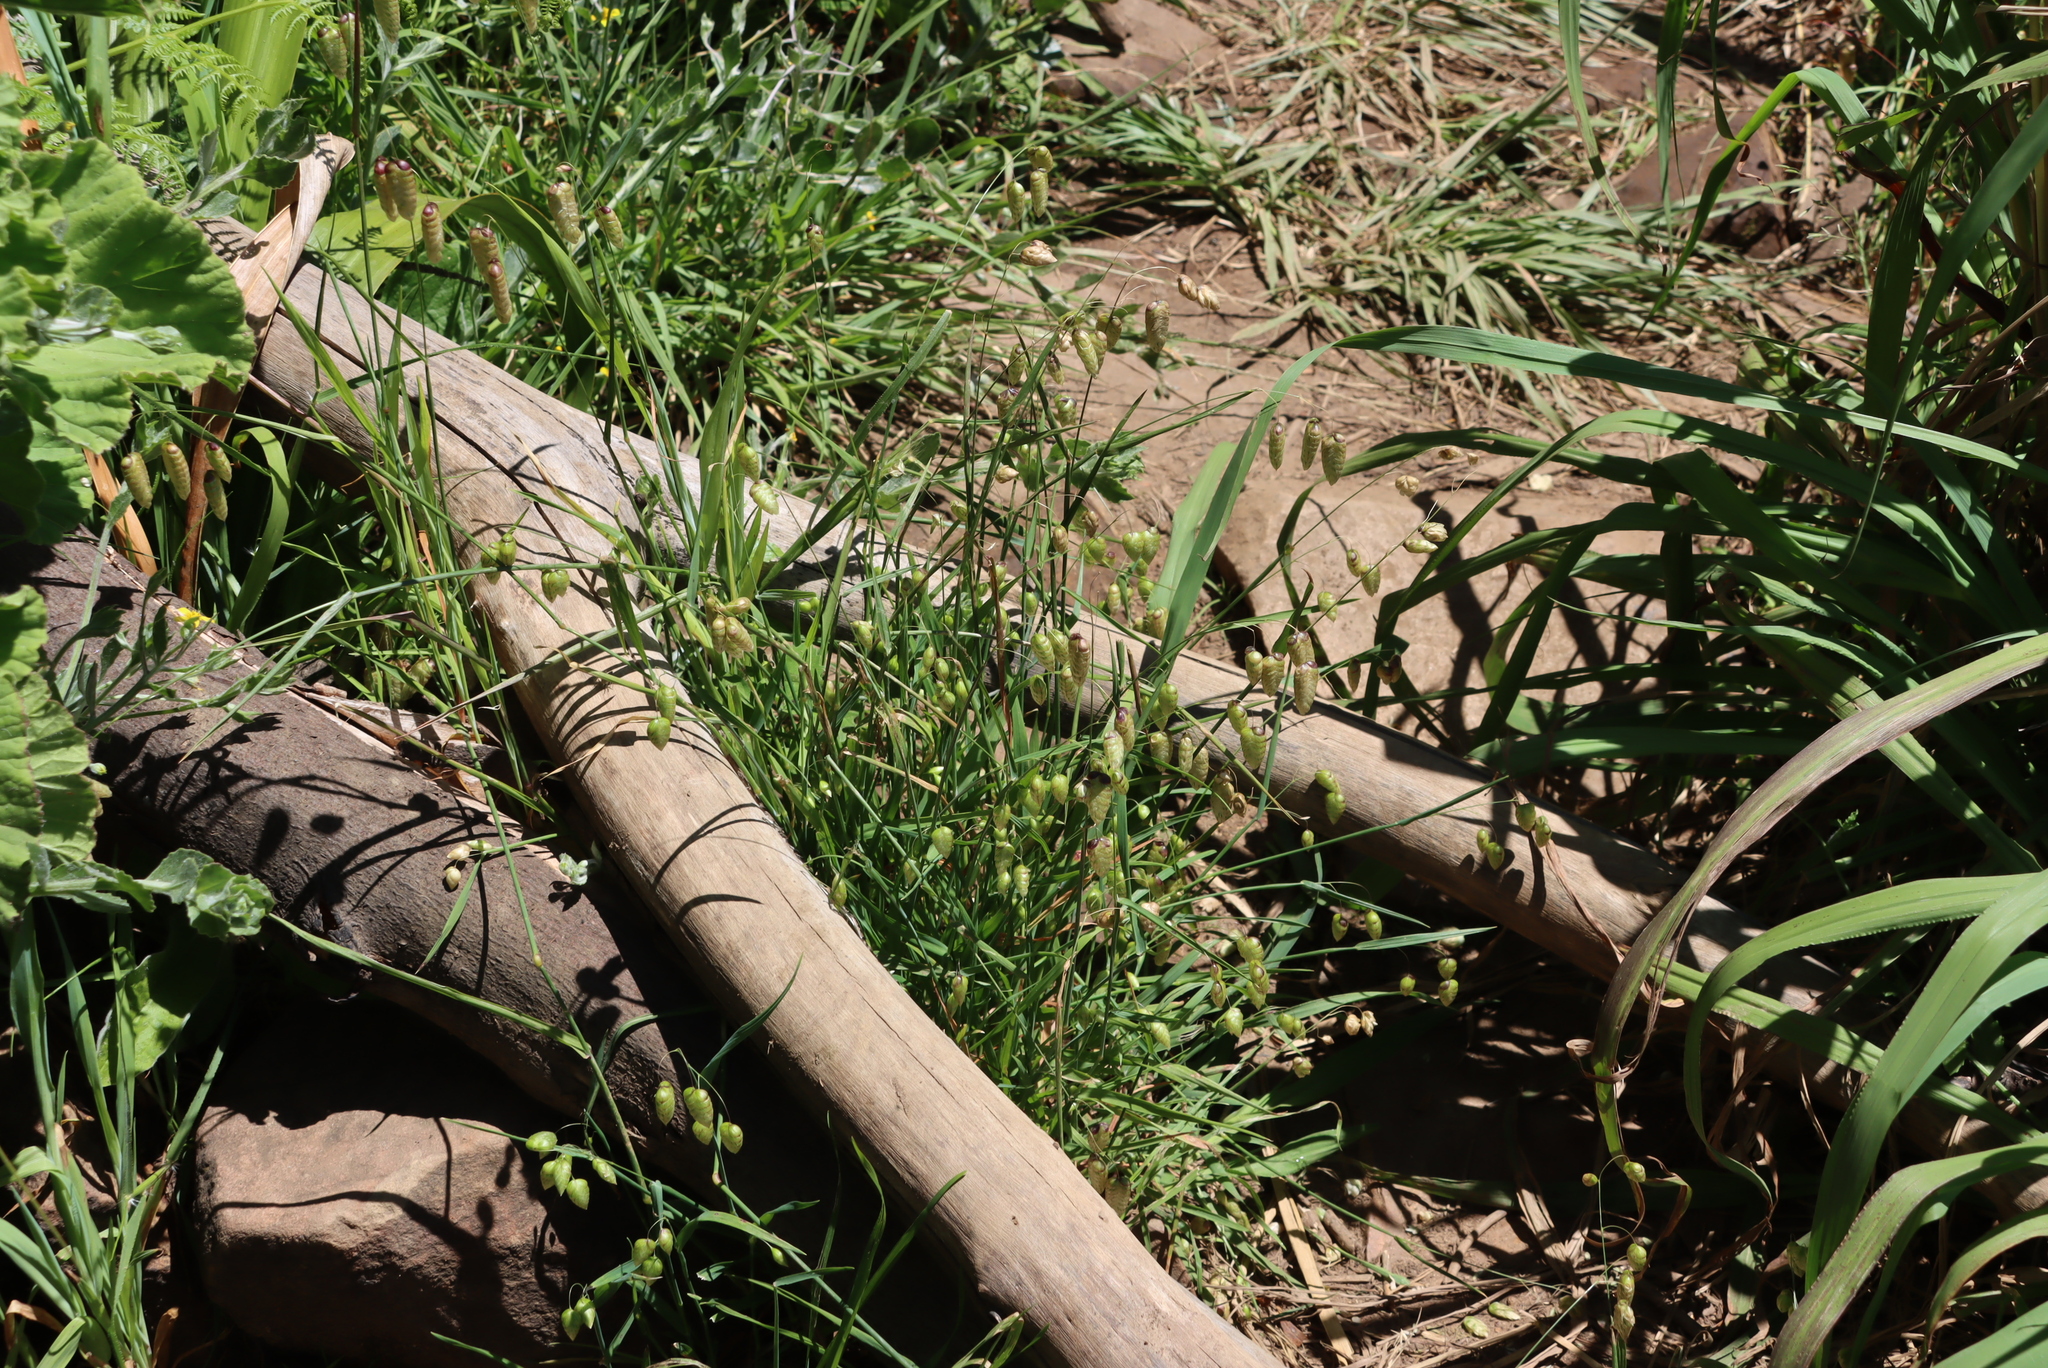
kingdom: Plantae
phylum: Tracheophyta
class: Liliopsida
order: Poales
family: Poaceae
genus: Briza
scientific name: Briza maxima
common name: Big quakinggrass
